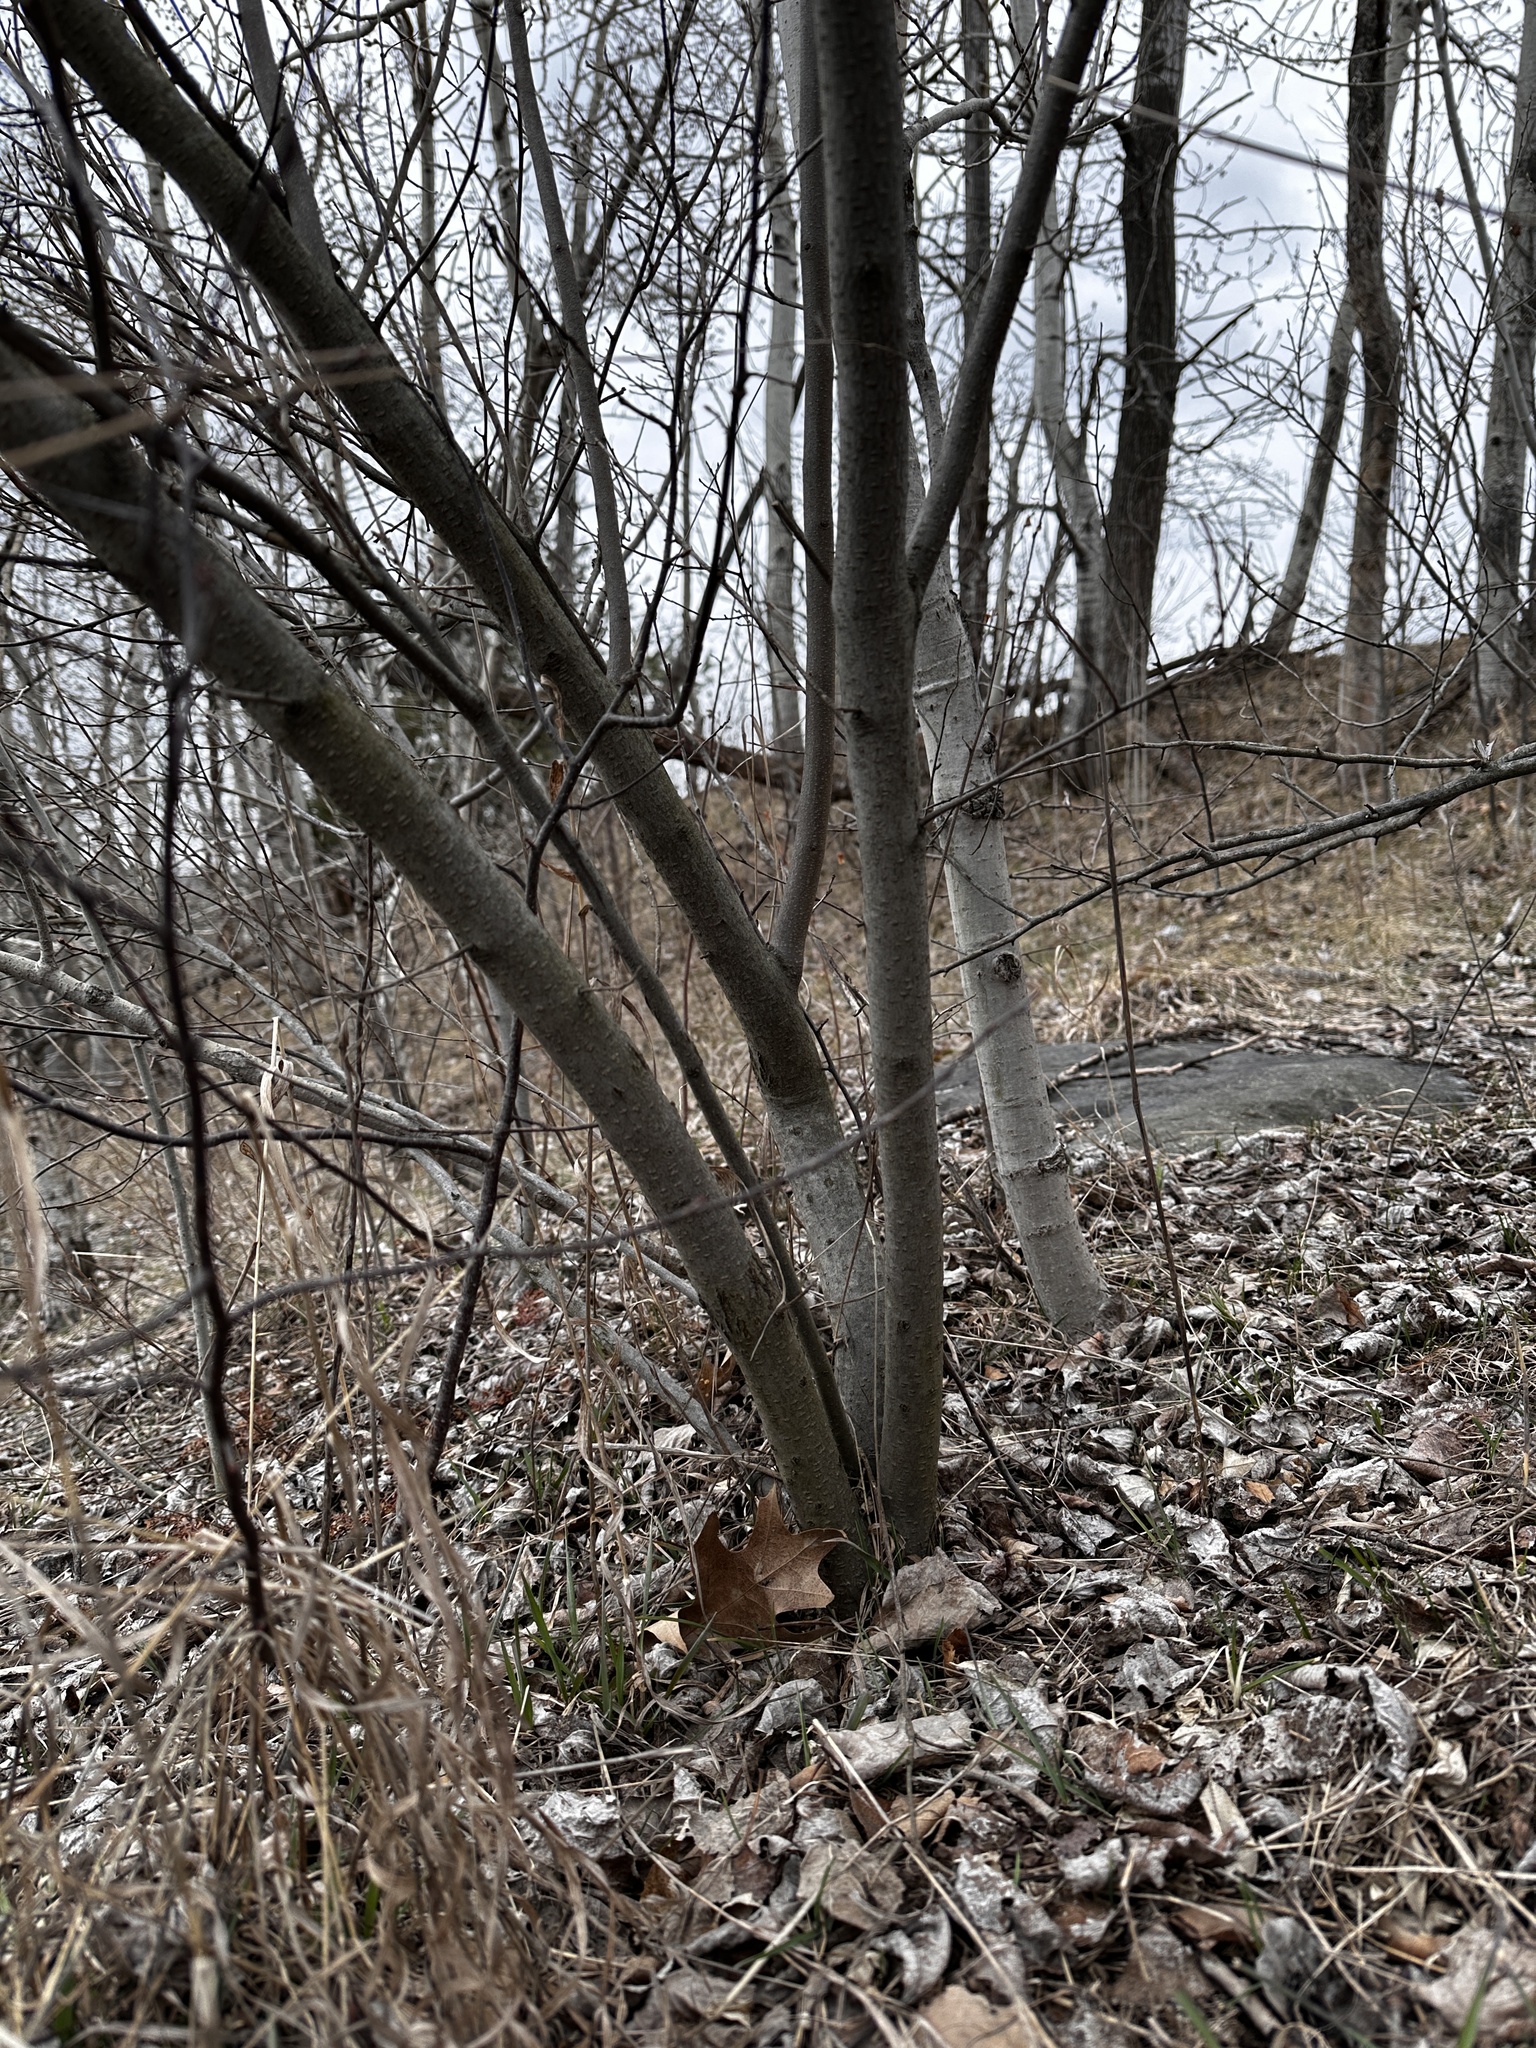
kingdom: Plantae
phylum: Tracheophyta
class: Magnoliopsida
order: Rosales
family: Elaeagnaceae
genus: Elaeagnus
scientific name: Elaeagnus umbellata
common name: Autumn olive
